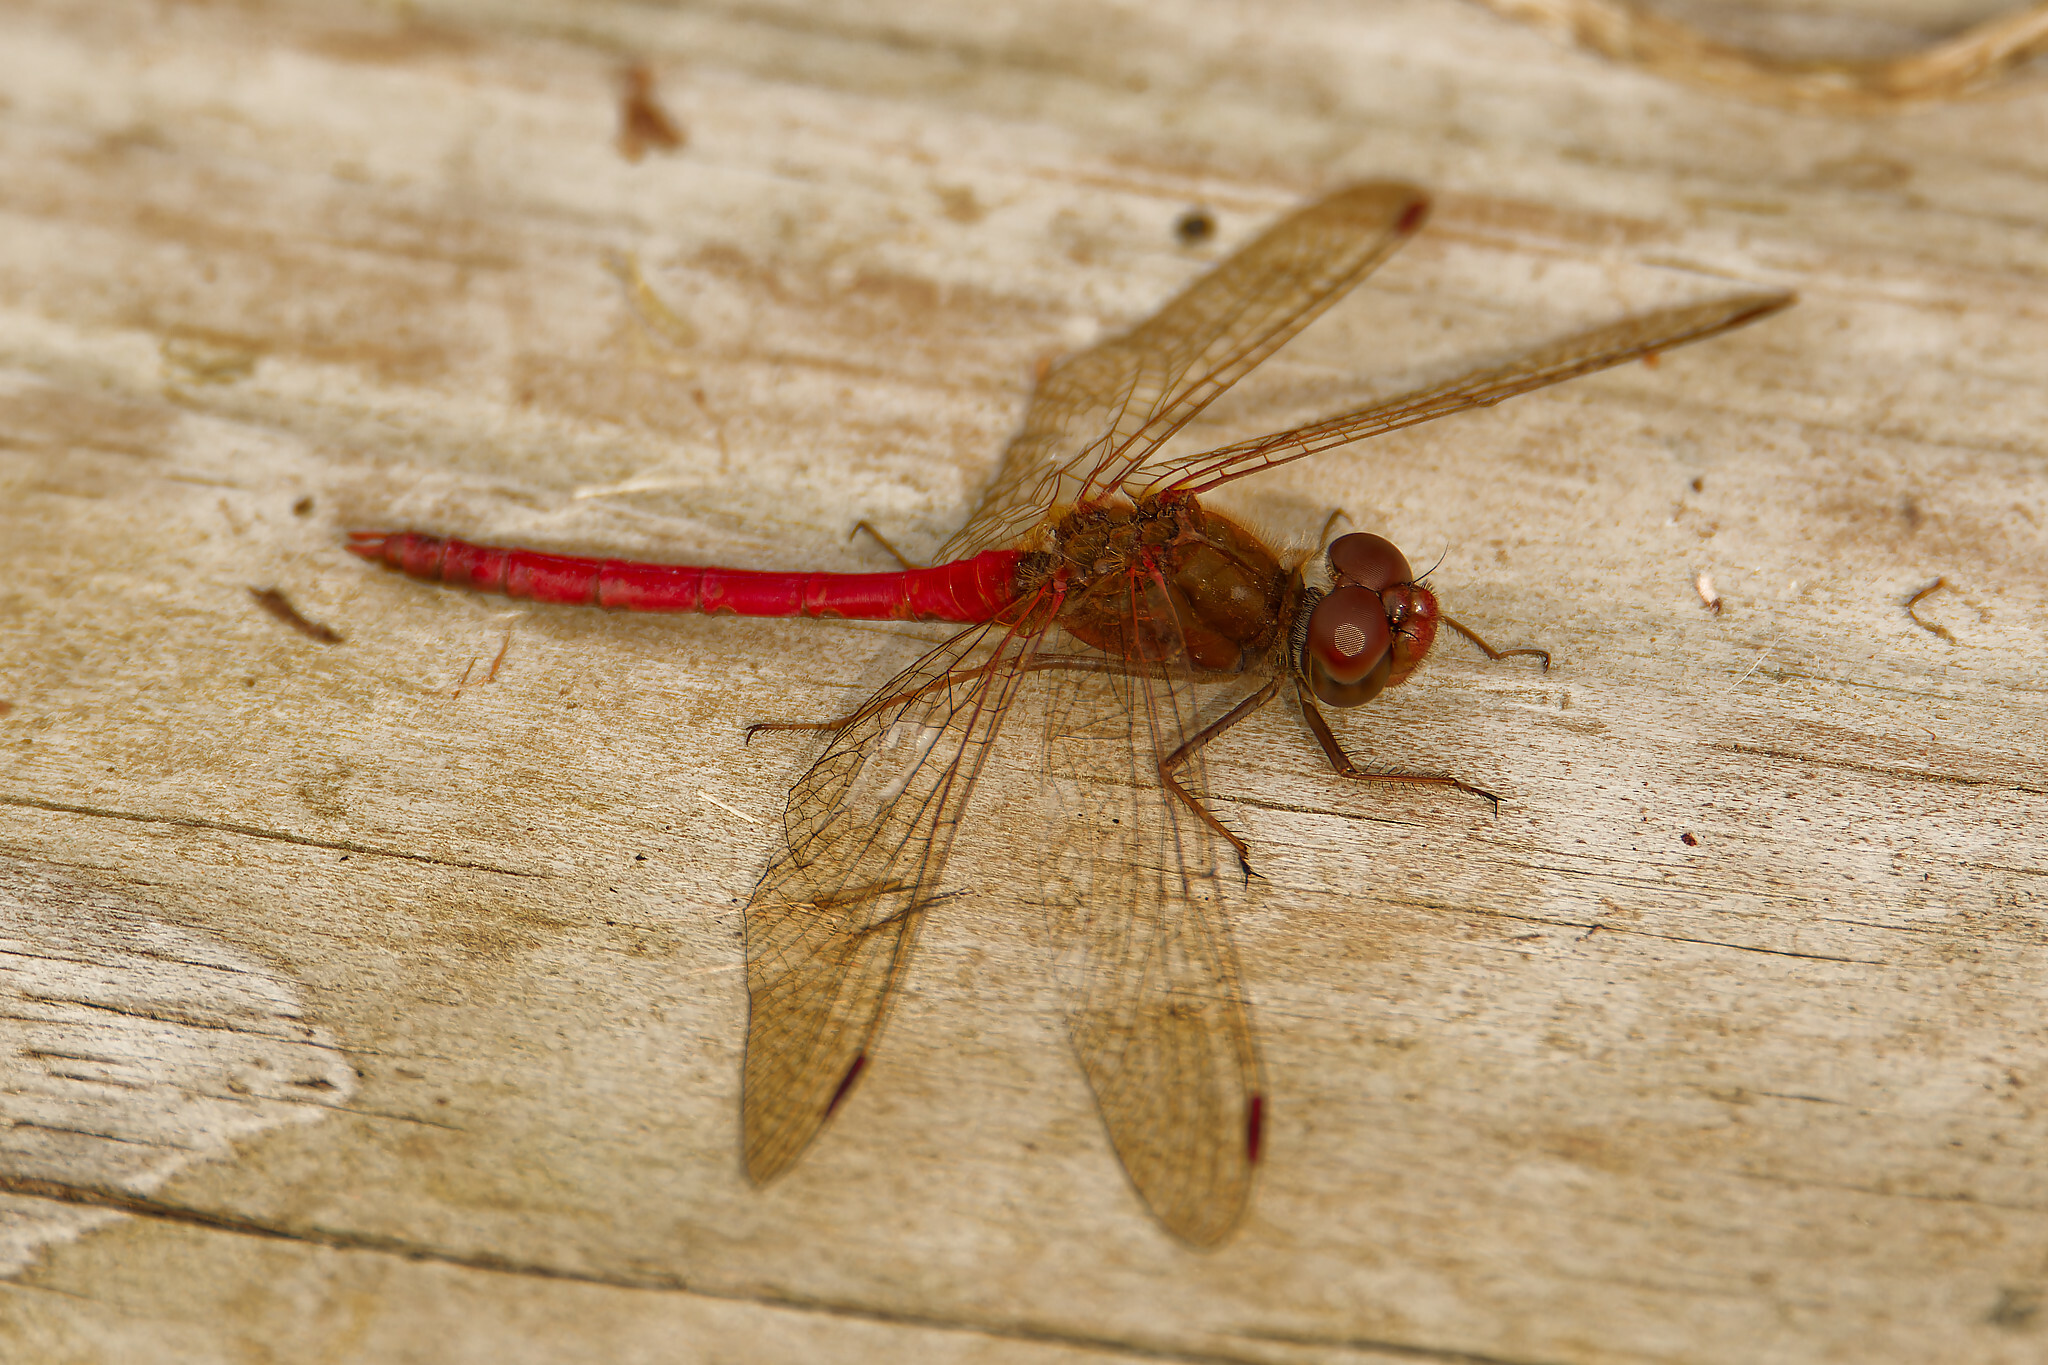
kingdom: Animalia
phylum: Arthropoda
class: Insecta
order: Odonata
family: Libellulidae
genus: Sympetrum
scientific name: Sympetrum vicinum
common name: Autumn meadowhawk
